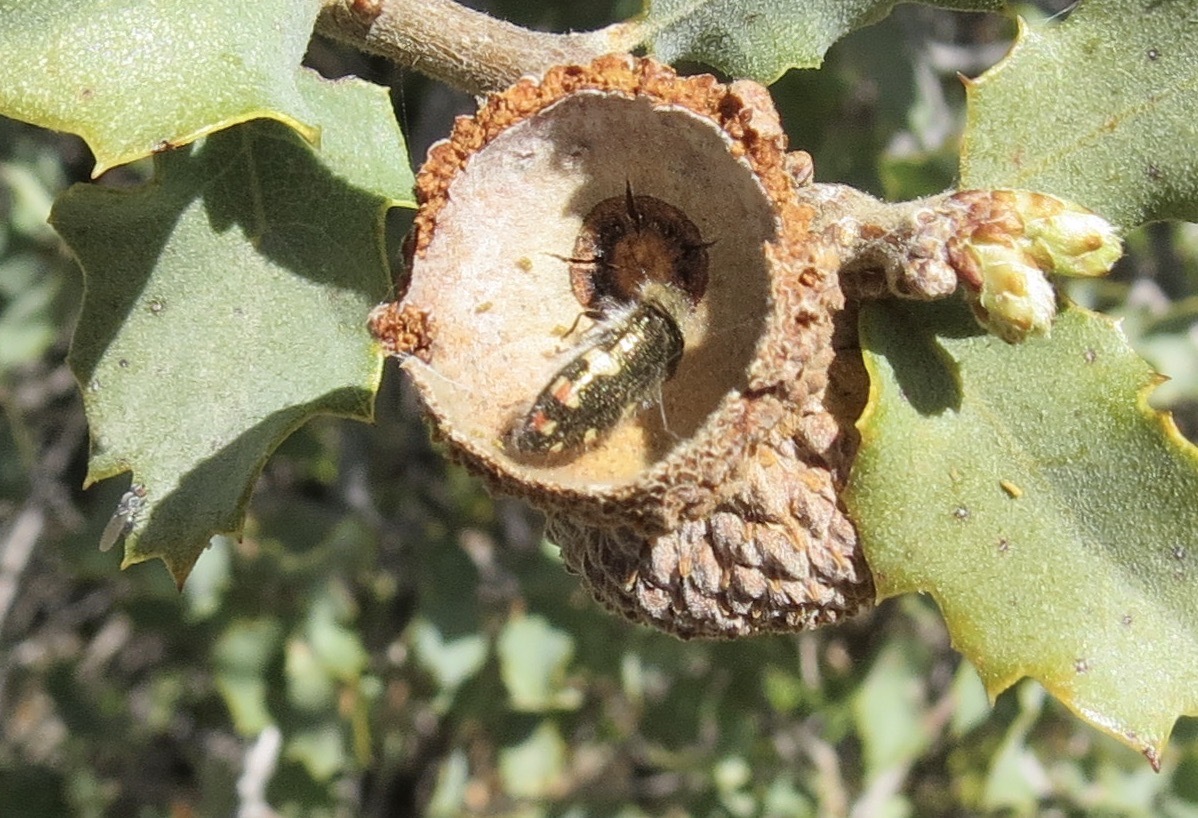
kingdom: Plantae
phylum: Tracheophyta
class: Magnoliopsida
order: Fagales
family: Fagaceae
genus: Quercus
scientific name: Quercus john-tuckeri
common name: Tucker's oak
